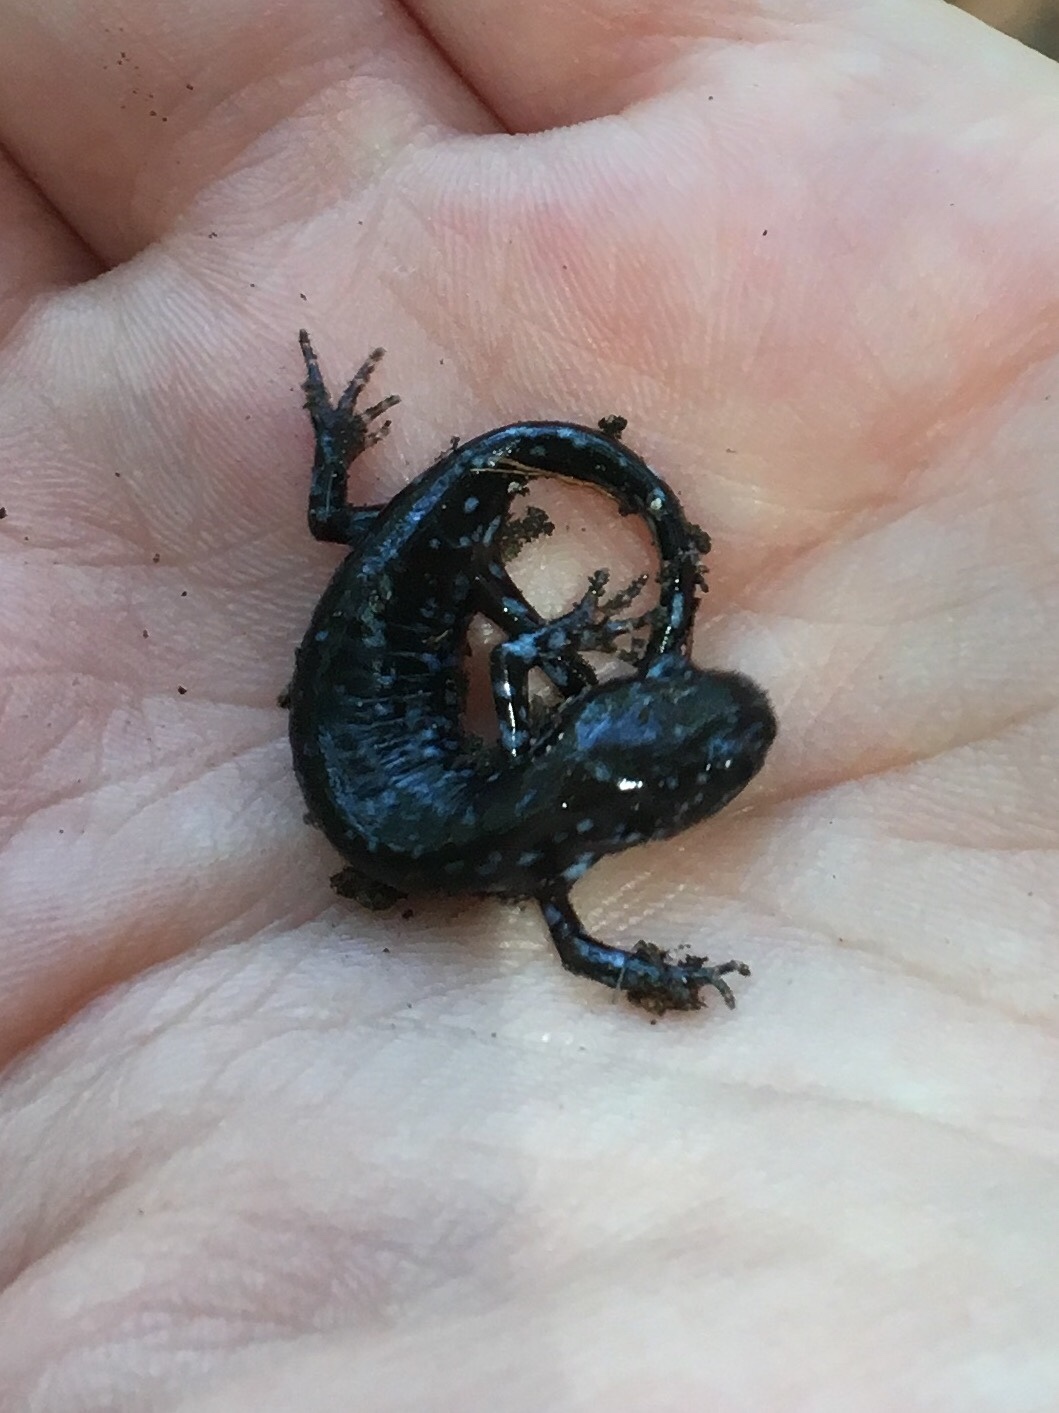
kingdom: Animalia
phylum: Chordata
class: Amphibia
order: Caudata
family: Ambystomatidae
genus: Ambystoma
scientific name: Ambystoma laterale
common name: Blue-spotted salamander
